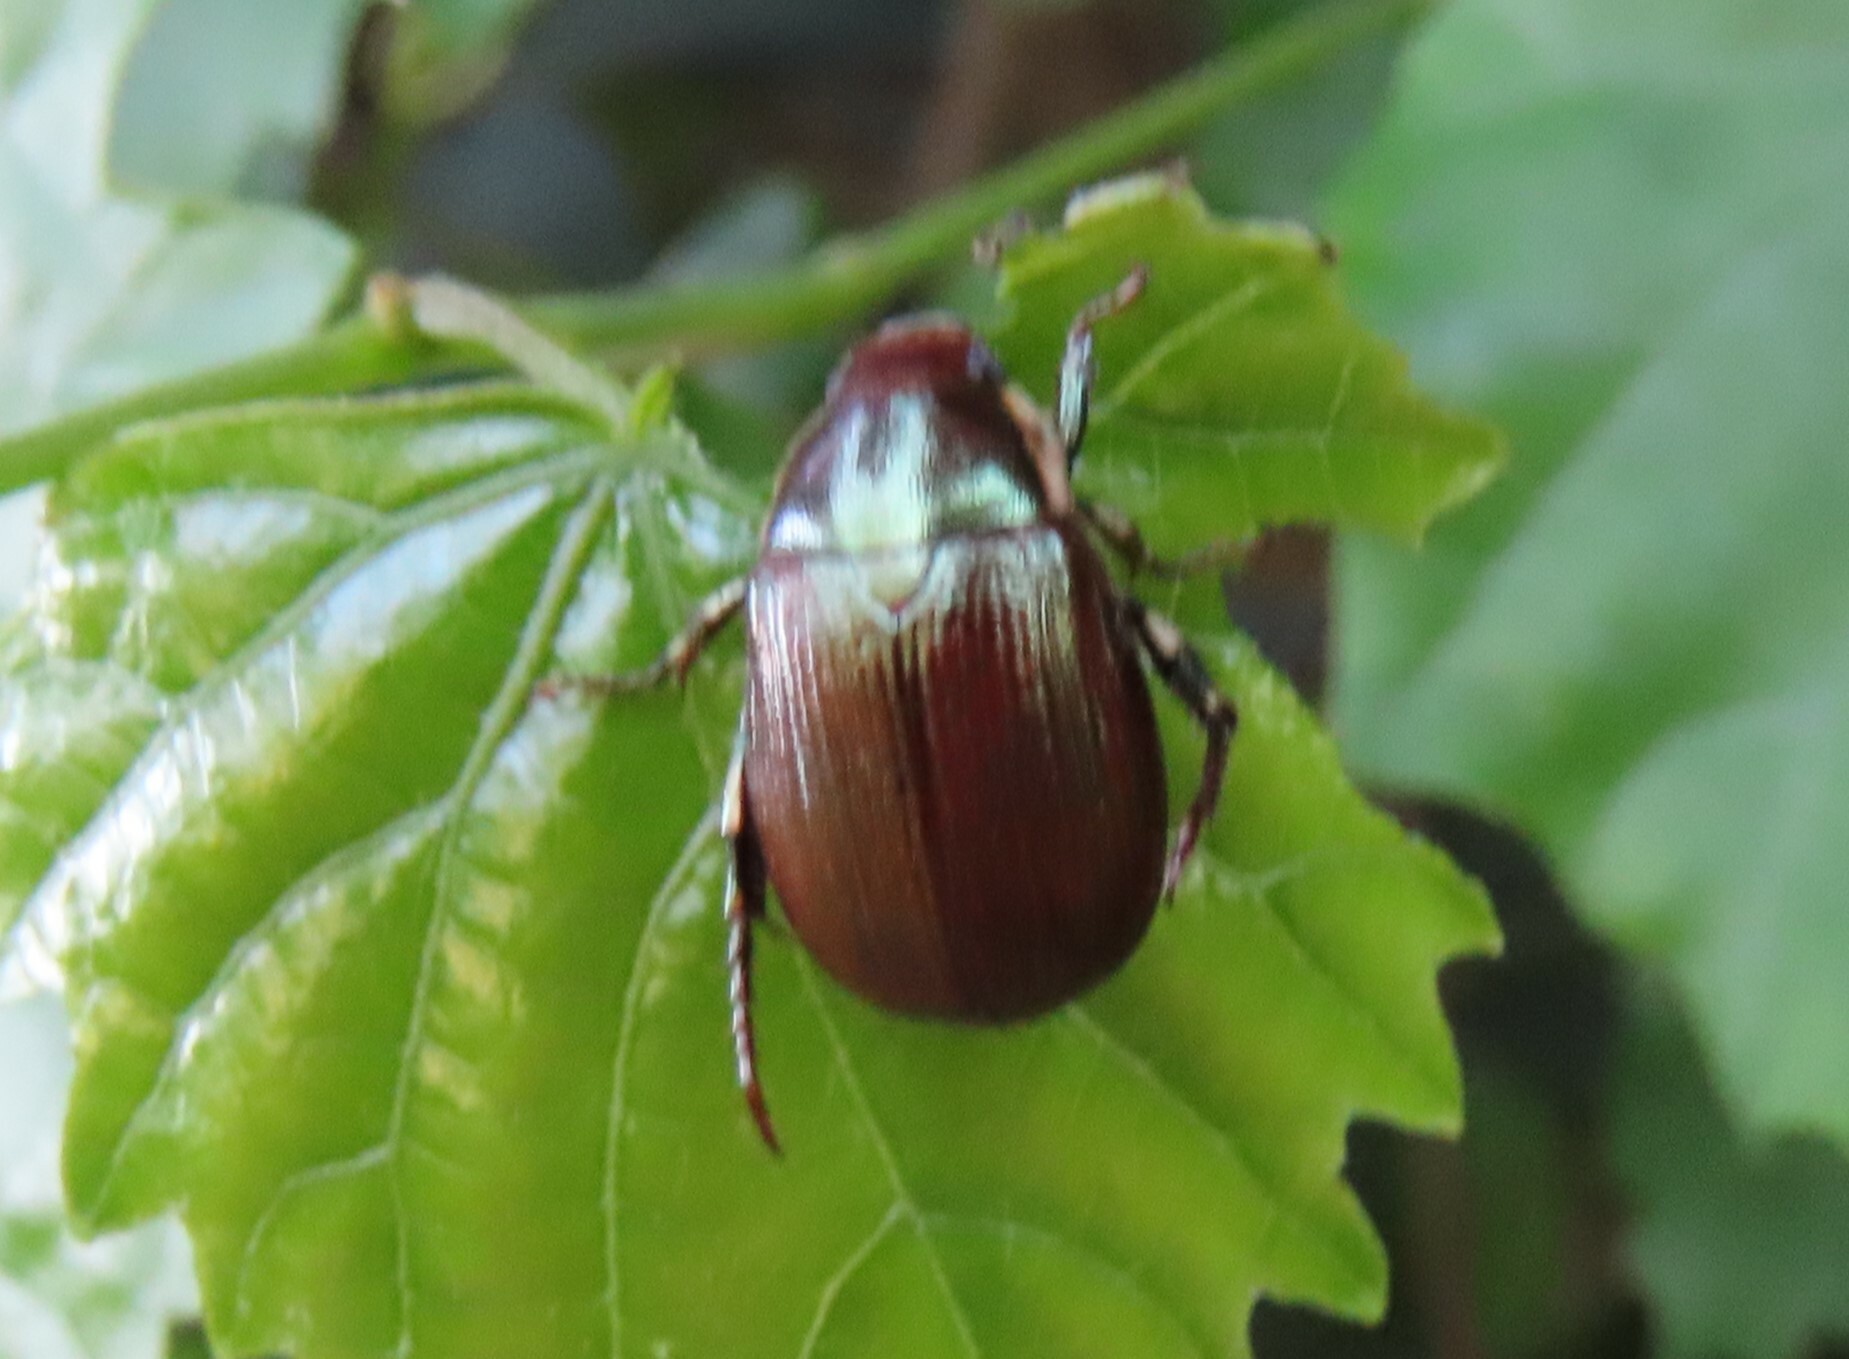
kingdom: Animalia
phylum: Arthropoda
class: Insecta
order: Coleoptera
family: Scarabaeidae
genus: Callistethus
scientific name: Callistethus marginatus
